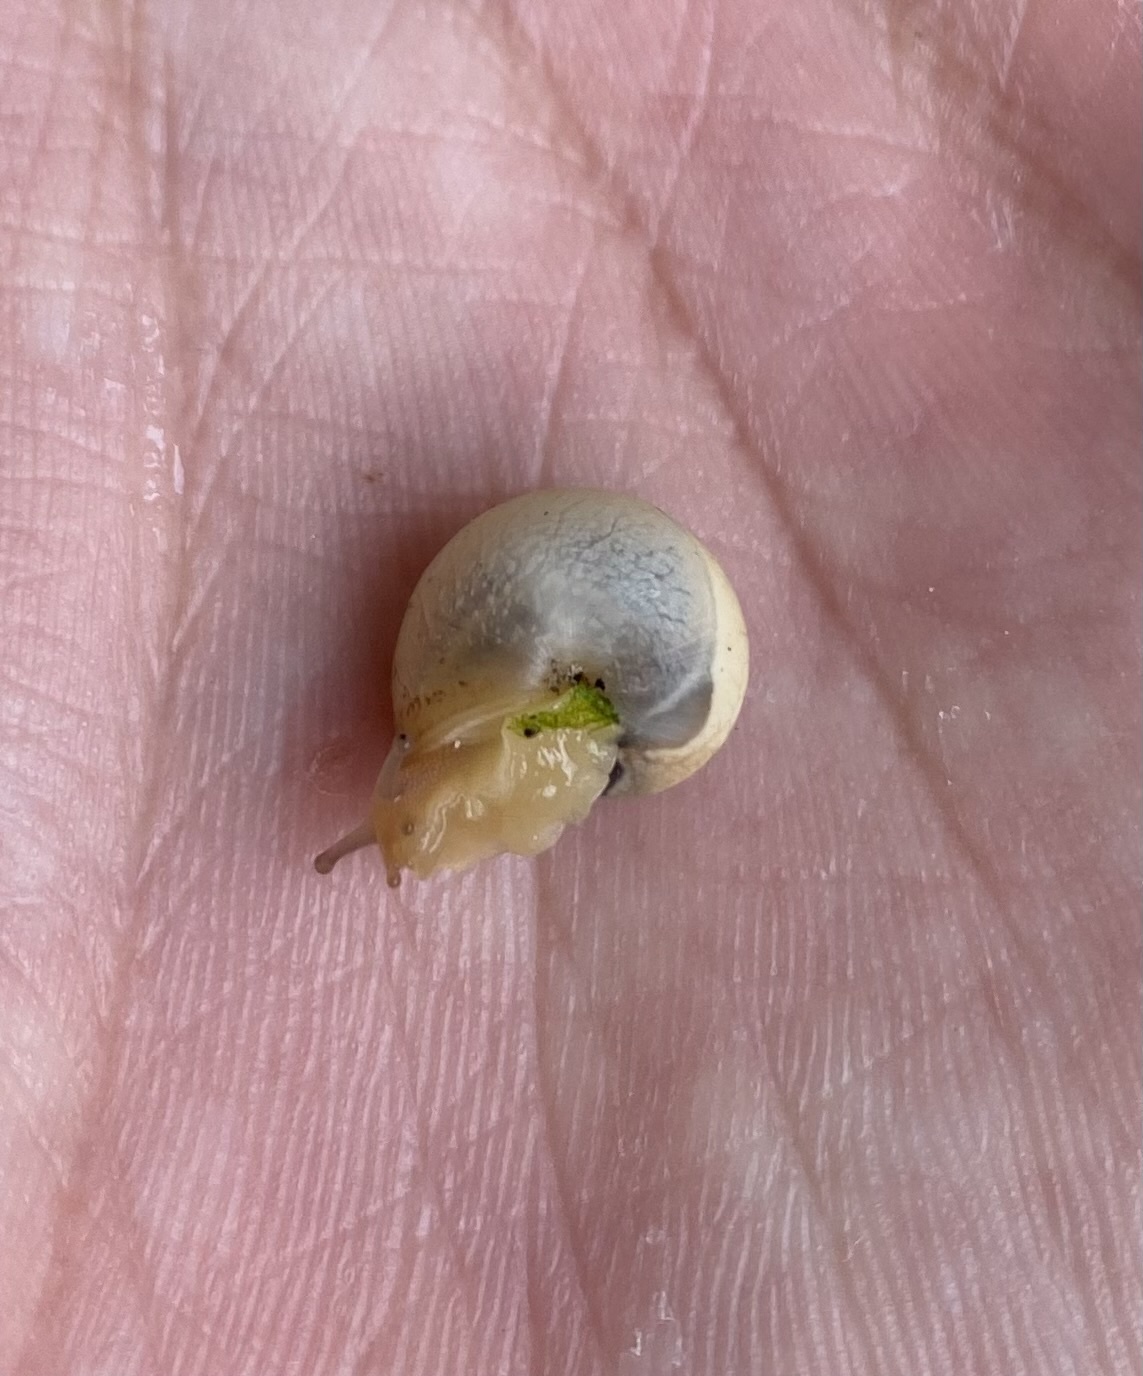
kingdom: Animalia
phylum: Mollusca
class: Gastropoda
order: Stylommatophora
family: Hygromiidae
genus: Monacha
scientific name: Monacha cartusiana
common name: Carthusian snail
